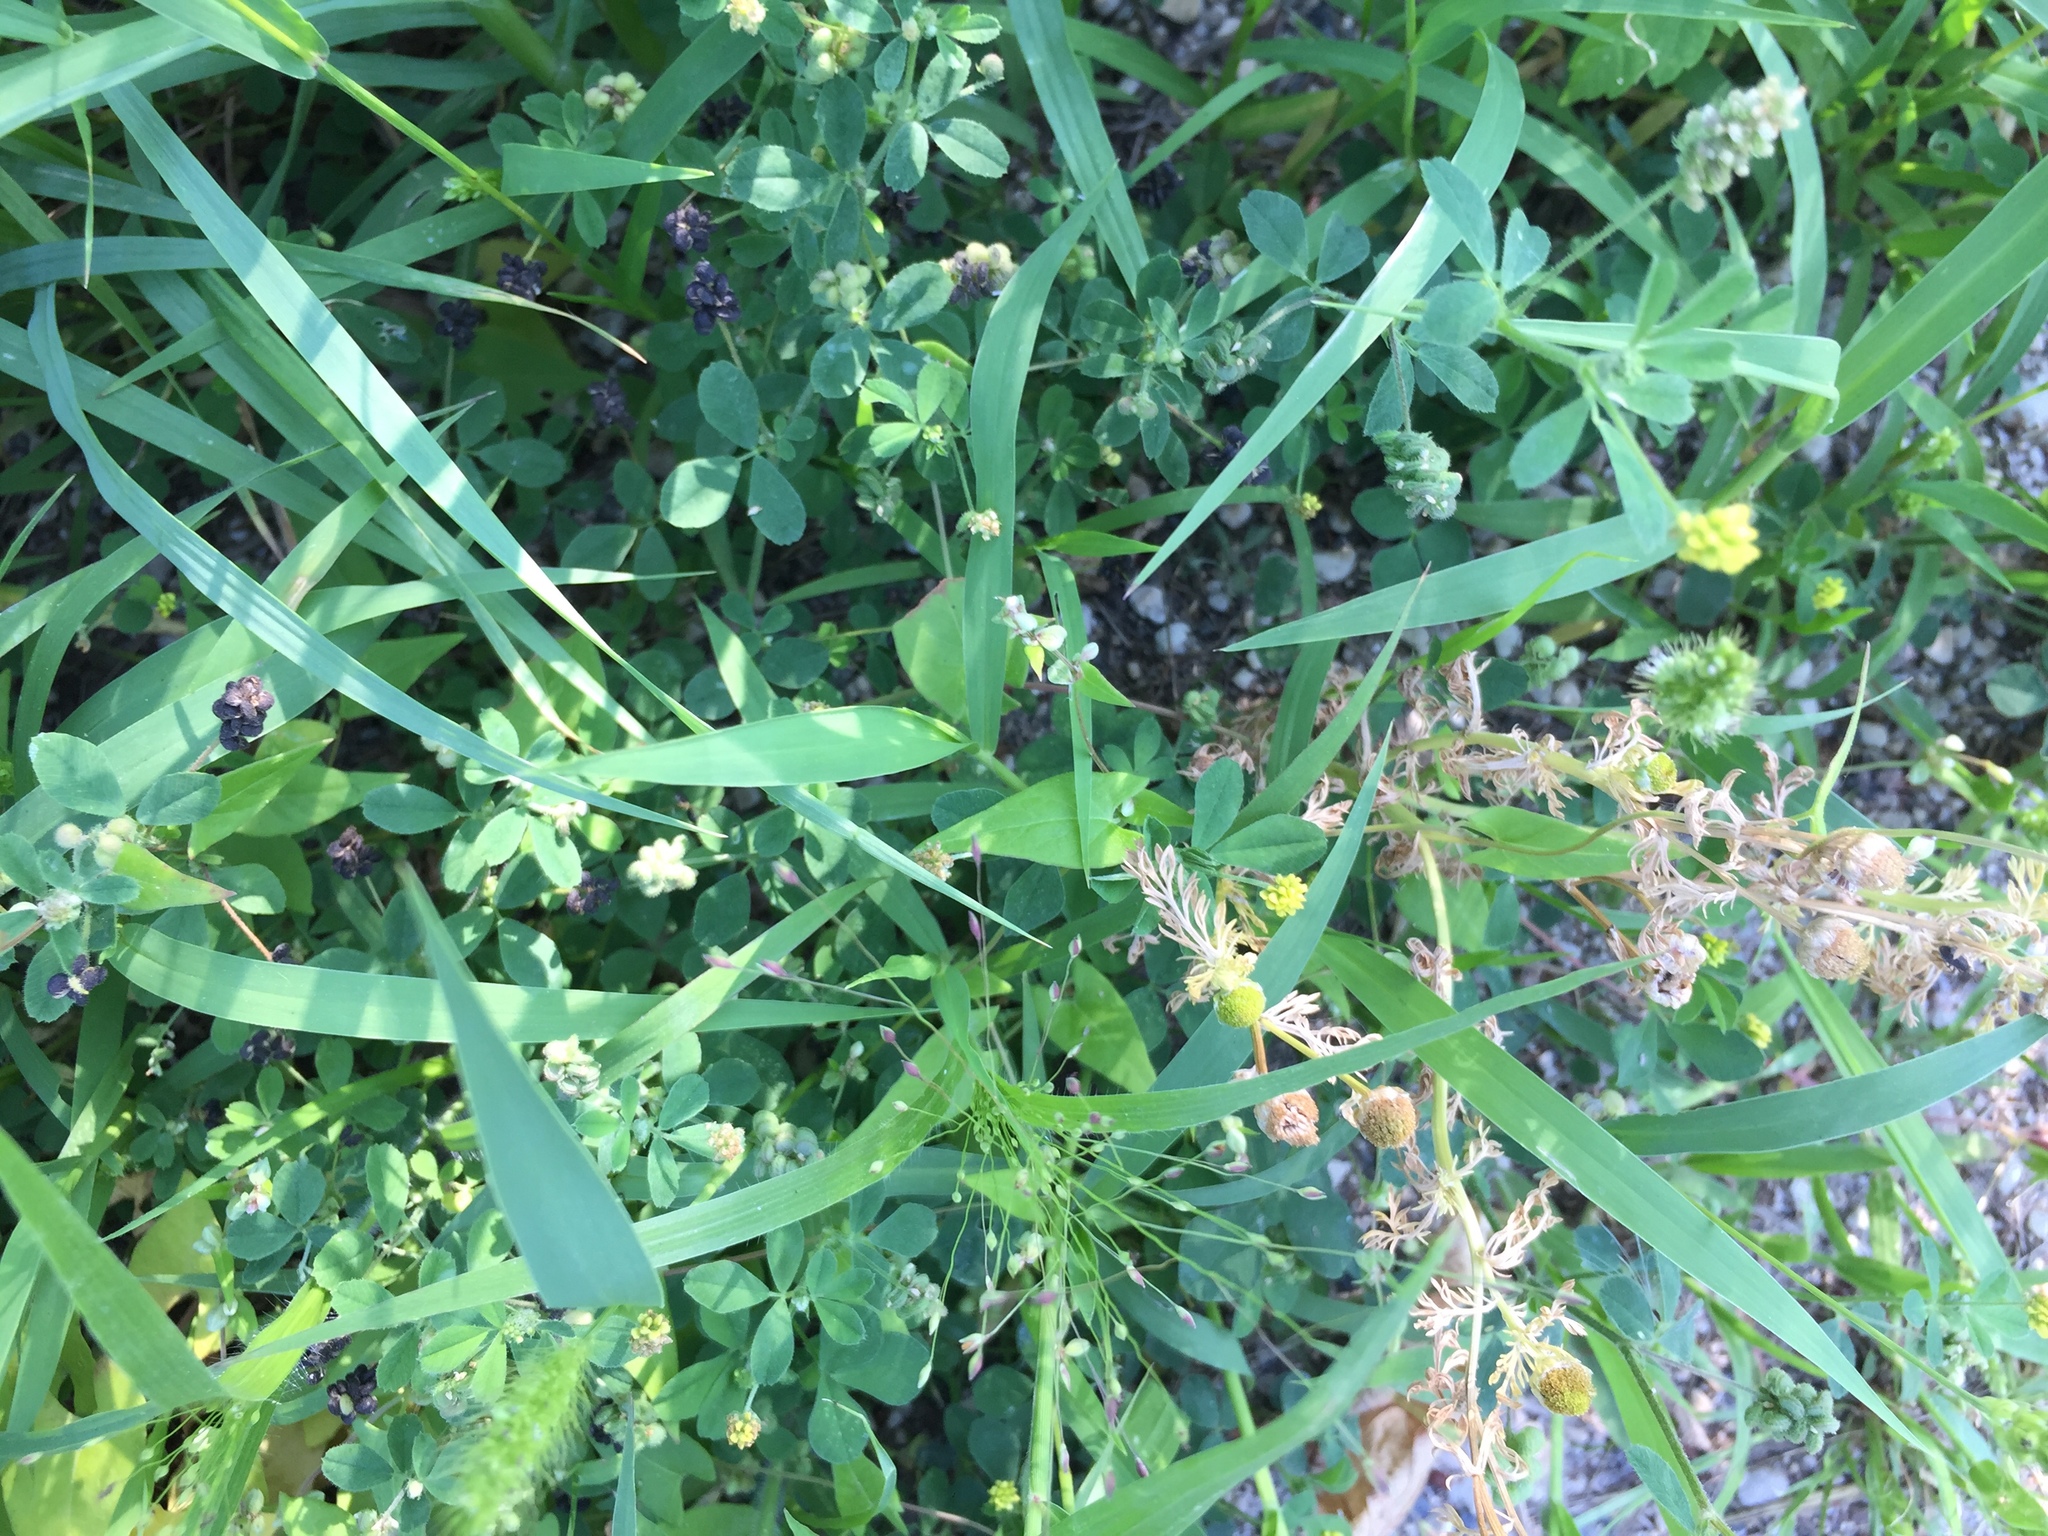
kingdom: Plantae
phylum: Tracheophyta
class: Magnoliopsida
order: Fabales
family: Fabaceae
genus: Medicago
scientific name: Medicago lupulina
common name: Black medick
